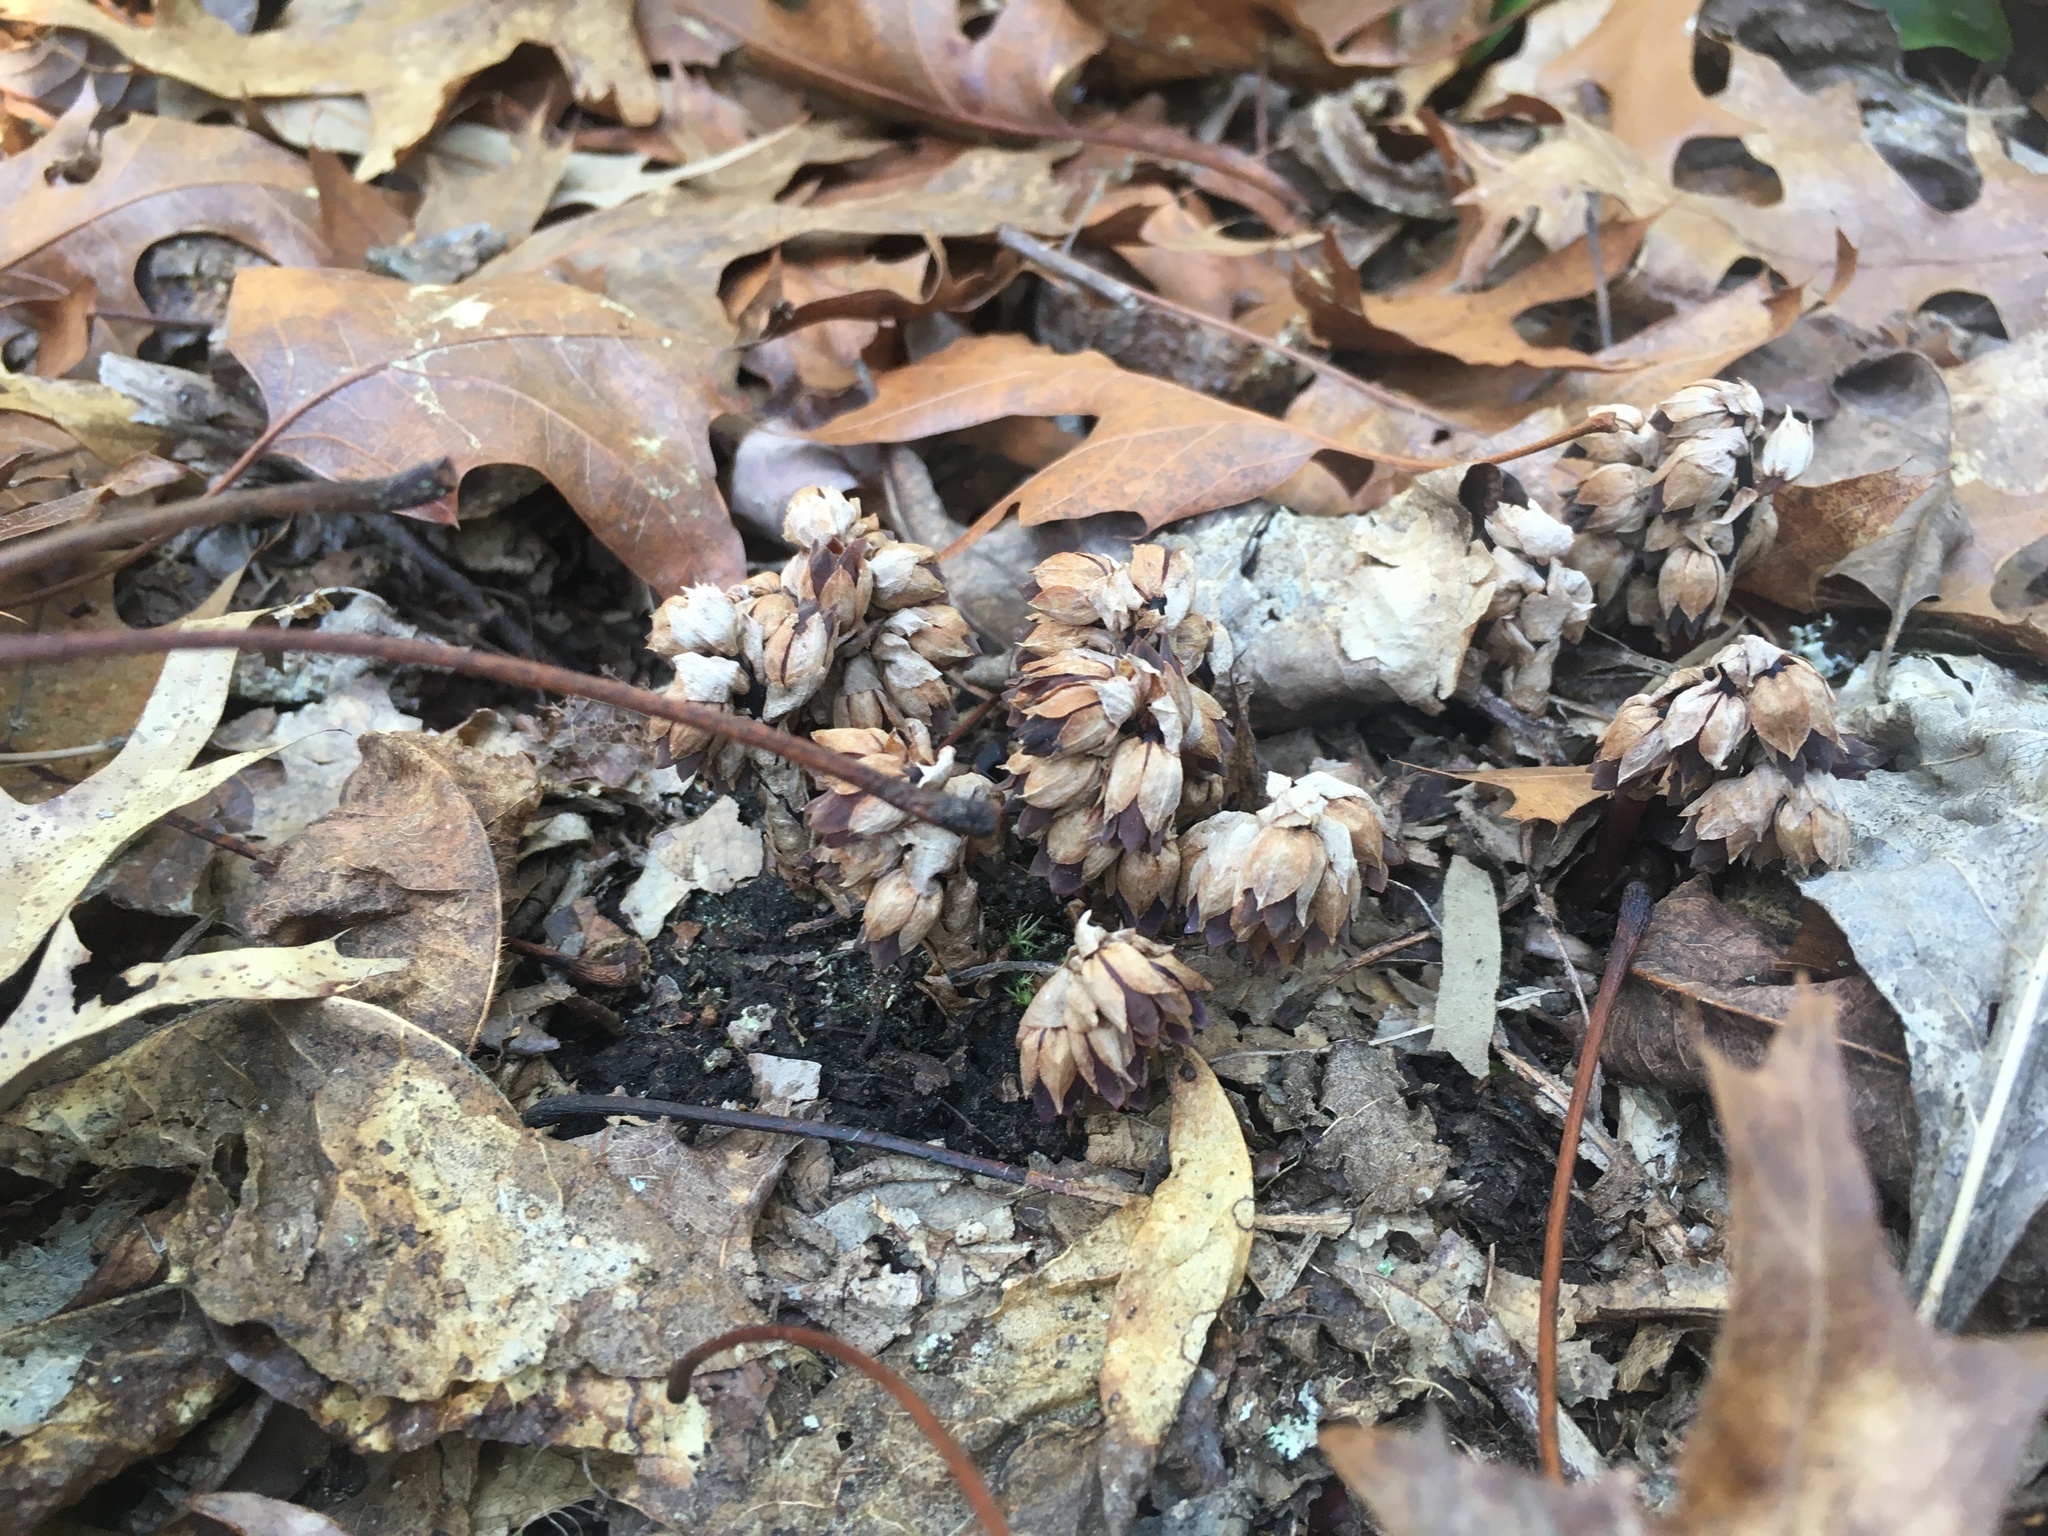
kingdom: Plantae
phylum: Tracheophyta
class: Magnoliopsida
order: Ericales
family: Ericaceae
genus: Monotropsis
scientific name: Monotropsis odorata
